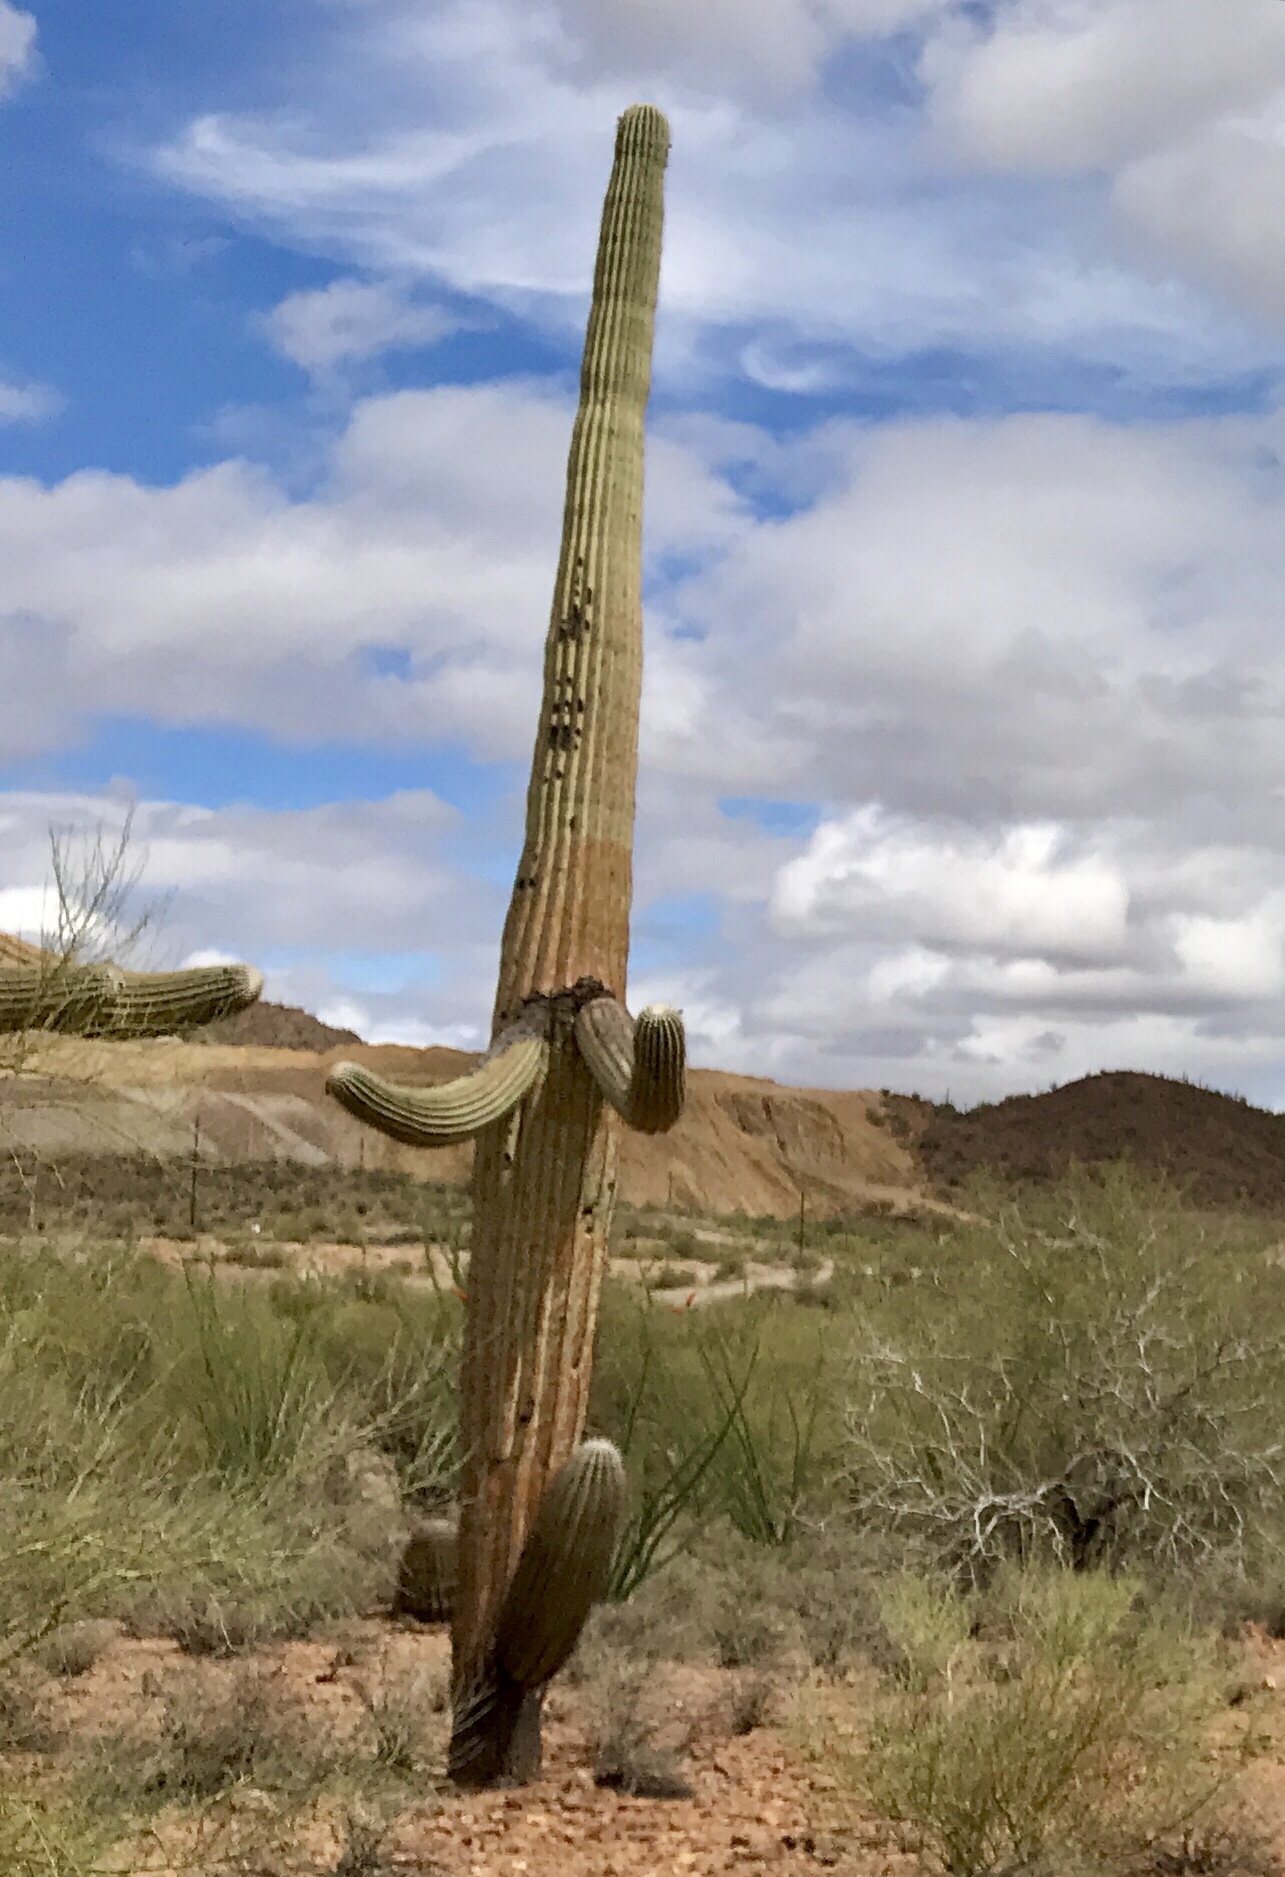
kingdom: Plantae
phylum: Tracheophyta
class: Magnoliopsida
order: Caryophyllales
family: Cactaceae
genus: Carnegiea
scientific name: Carnegiea gigantea
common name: Saguaro
